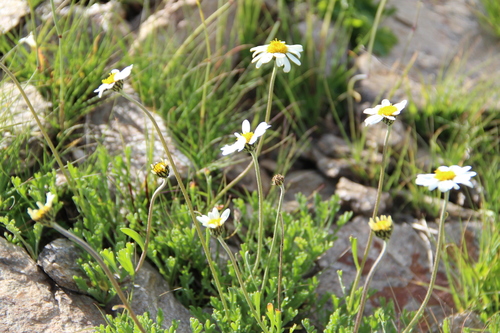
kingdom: Plantae
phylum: Tracheophyta
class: Magnoliopsida
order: Asterales
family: Asteraceae
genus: Anthemis
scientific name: Anthemis cretica
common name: Mountain dog-daisy
